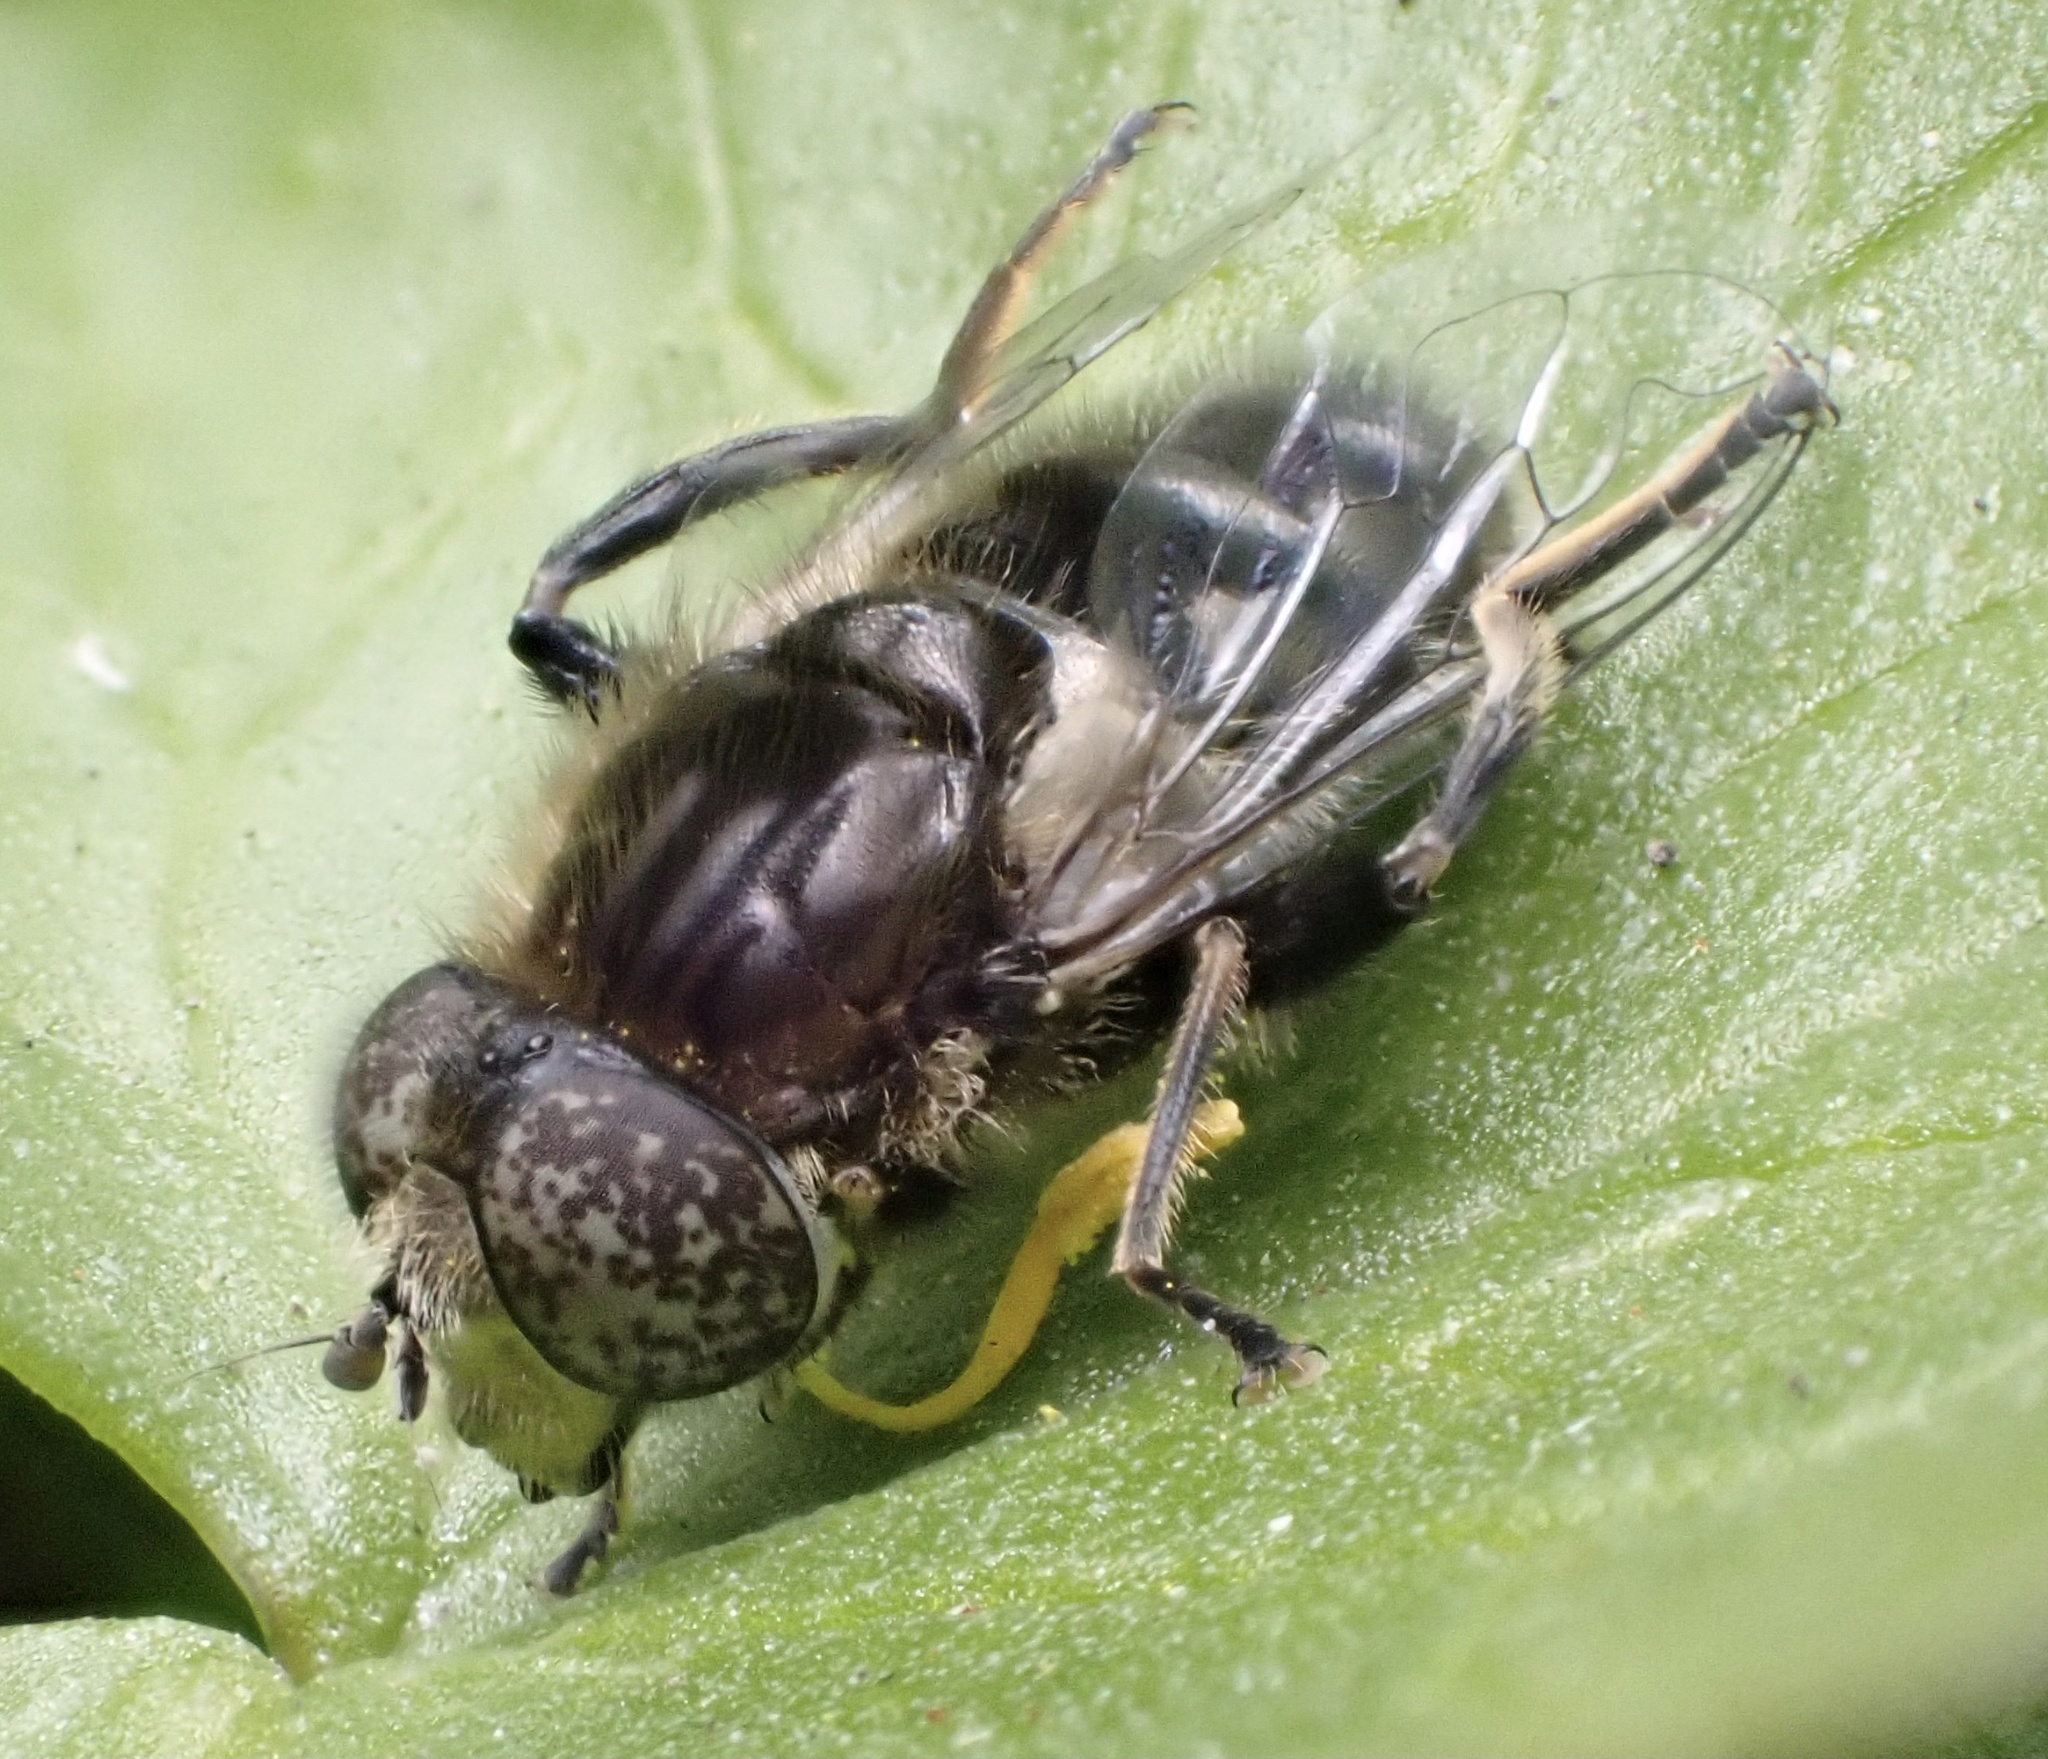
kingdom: Animalia
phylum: Arthropoda
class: Insecta
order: Diptera
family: Syrphidae
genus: Eristalinus
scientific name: Eristalinus sepulchralis
